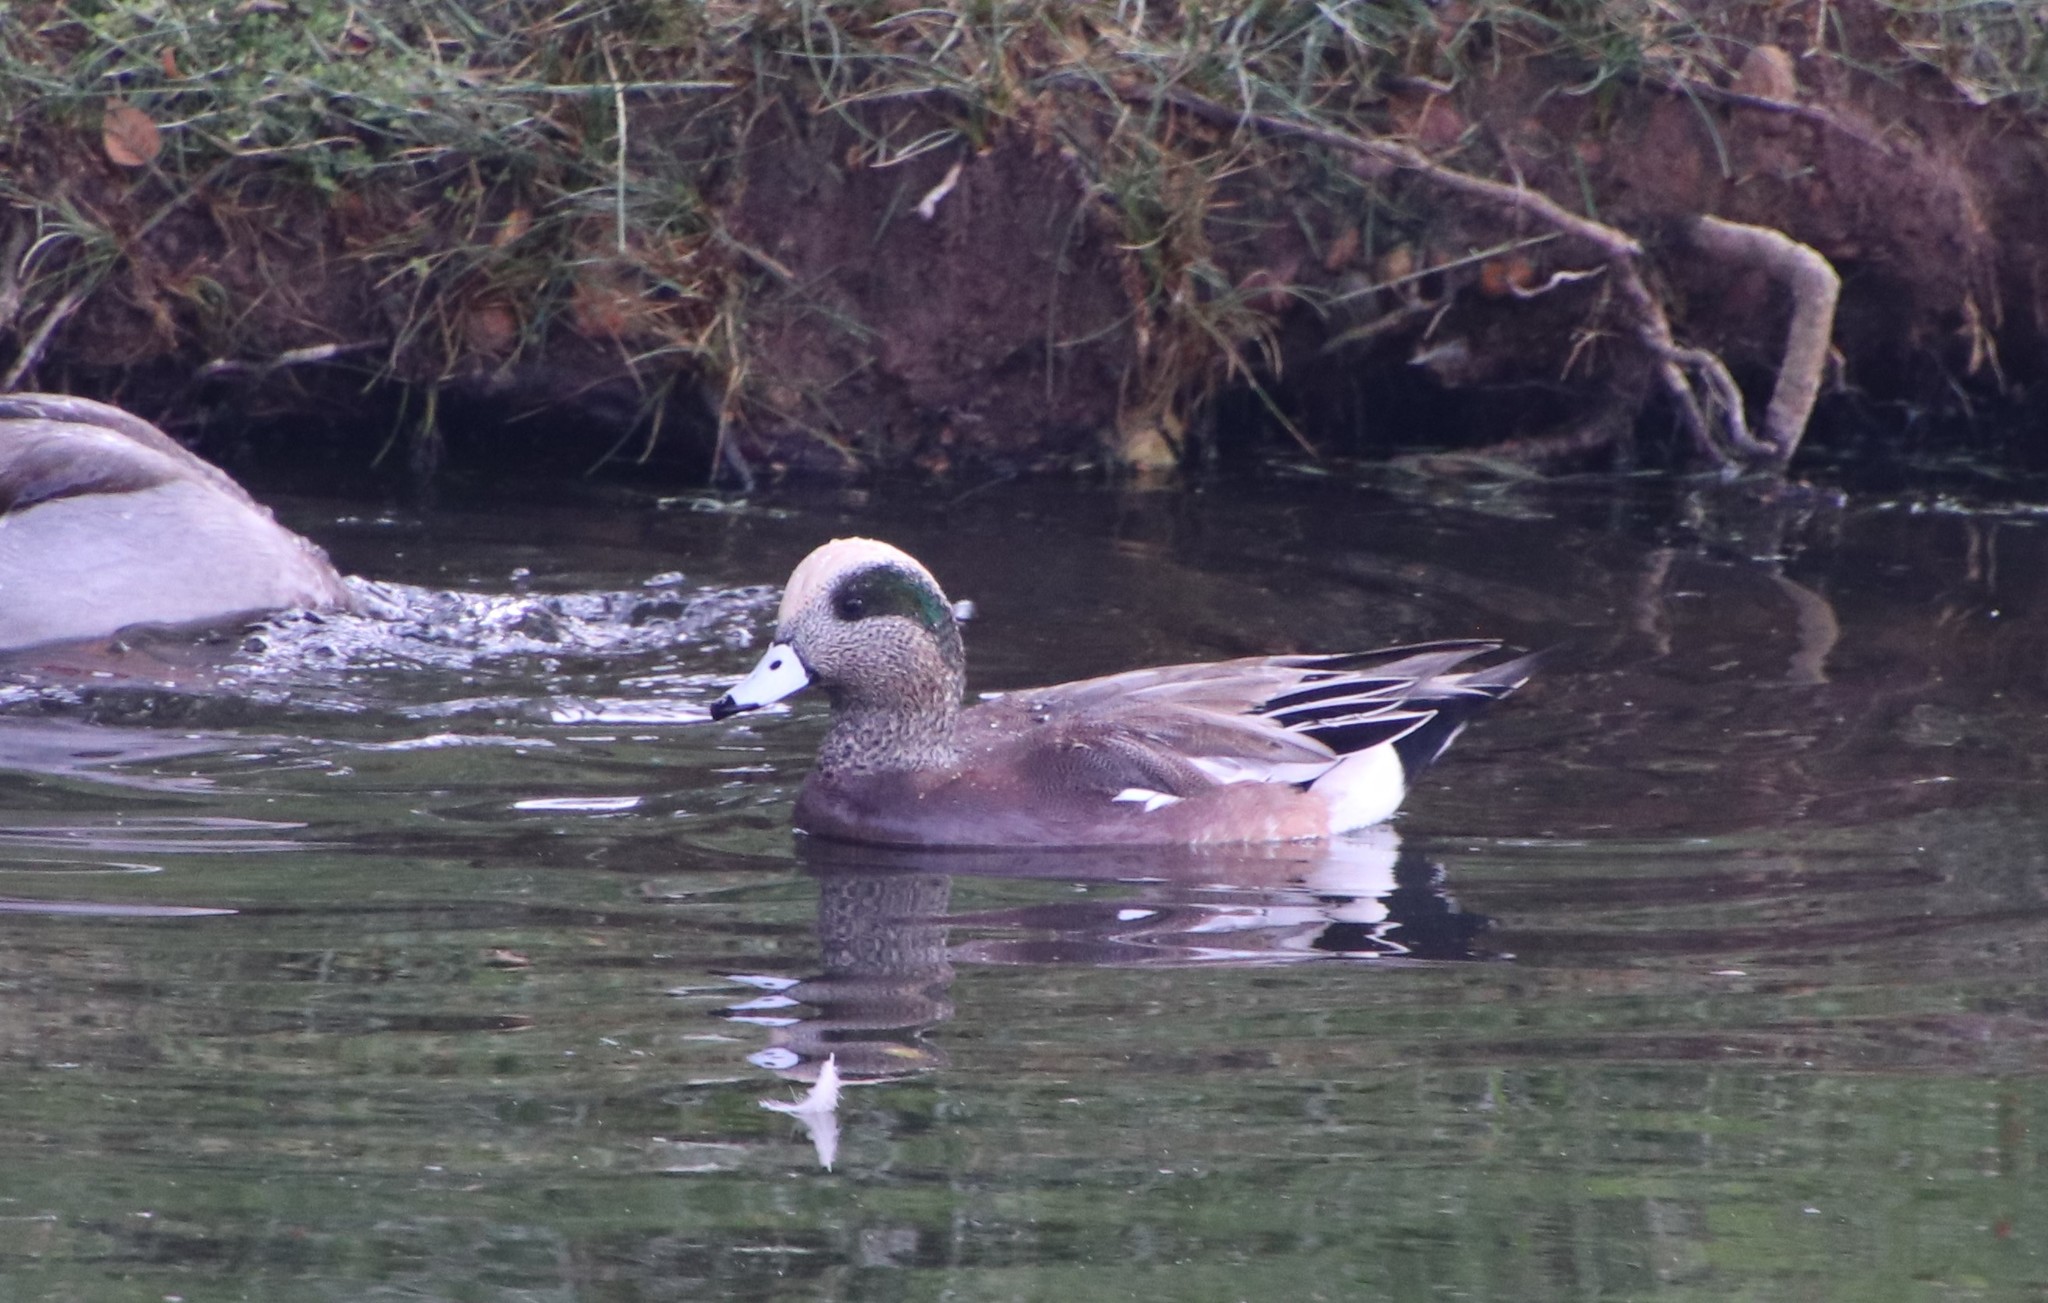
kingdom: Animalia
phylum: Chordata
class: Aves
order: Anseriformes
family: Anatidae
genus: Mareca
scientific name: Mareca americana
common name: American wigeon
